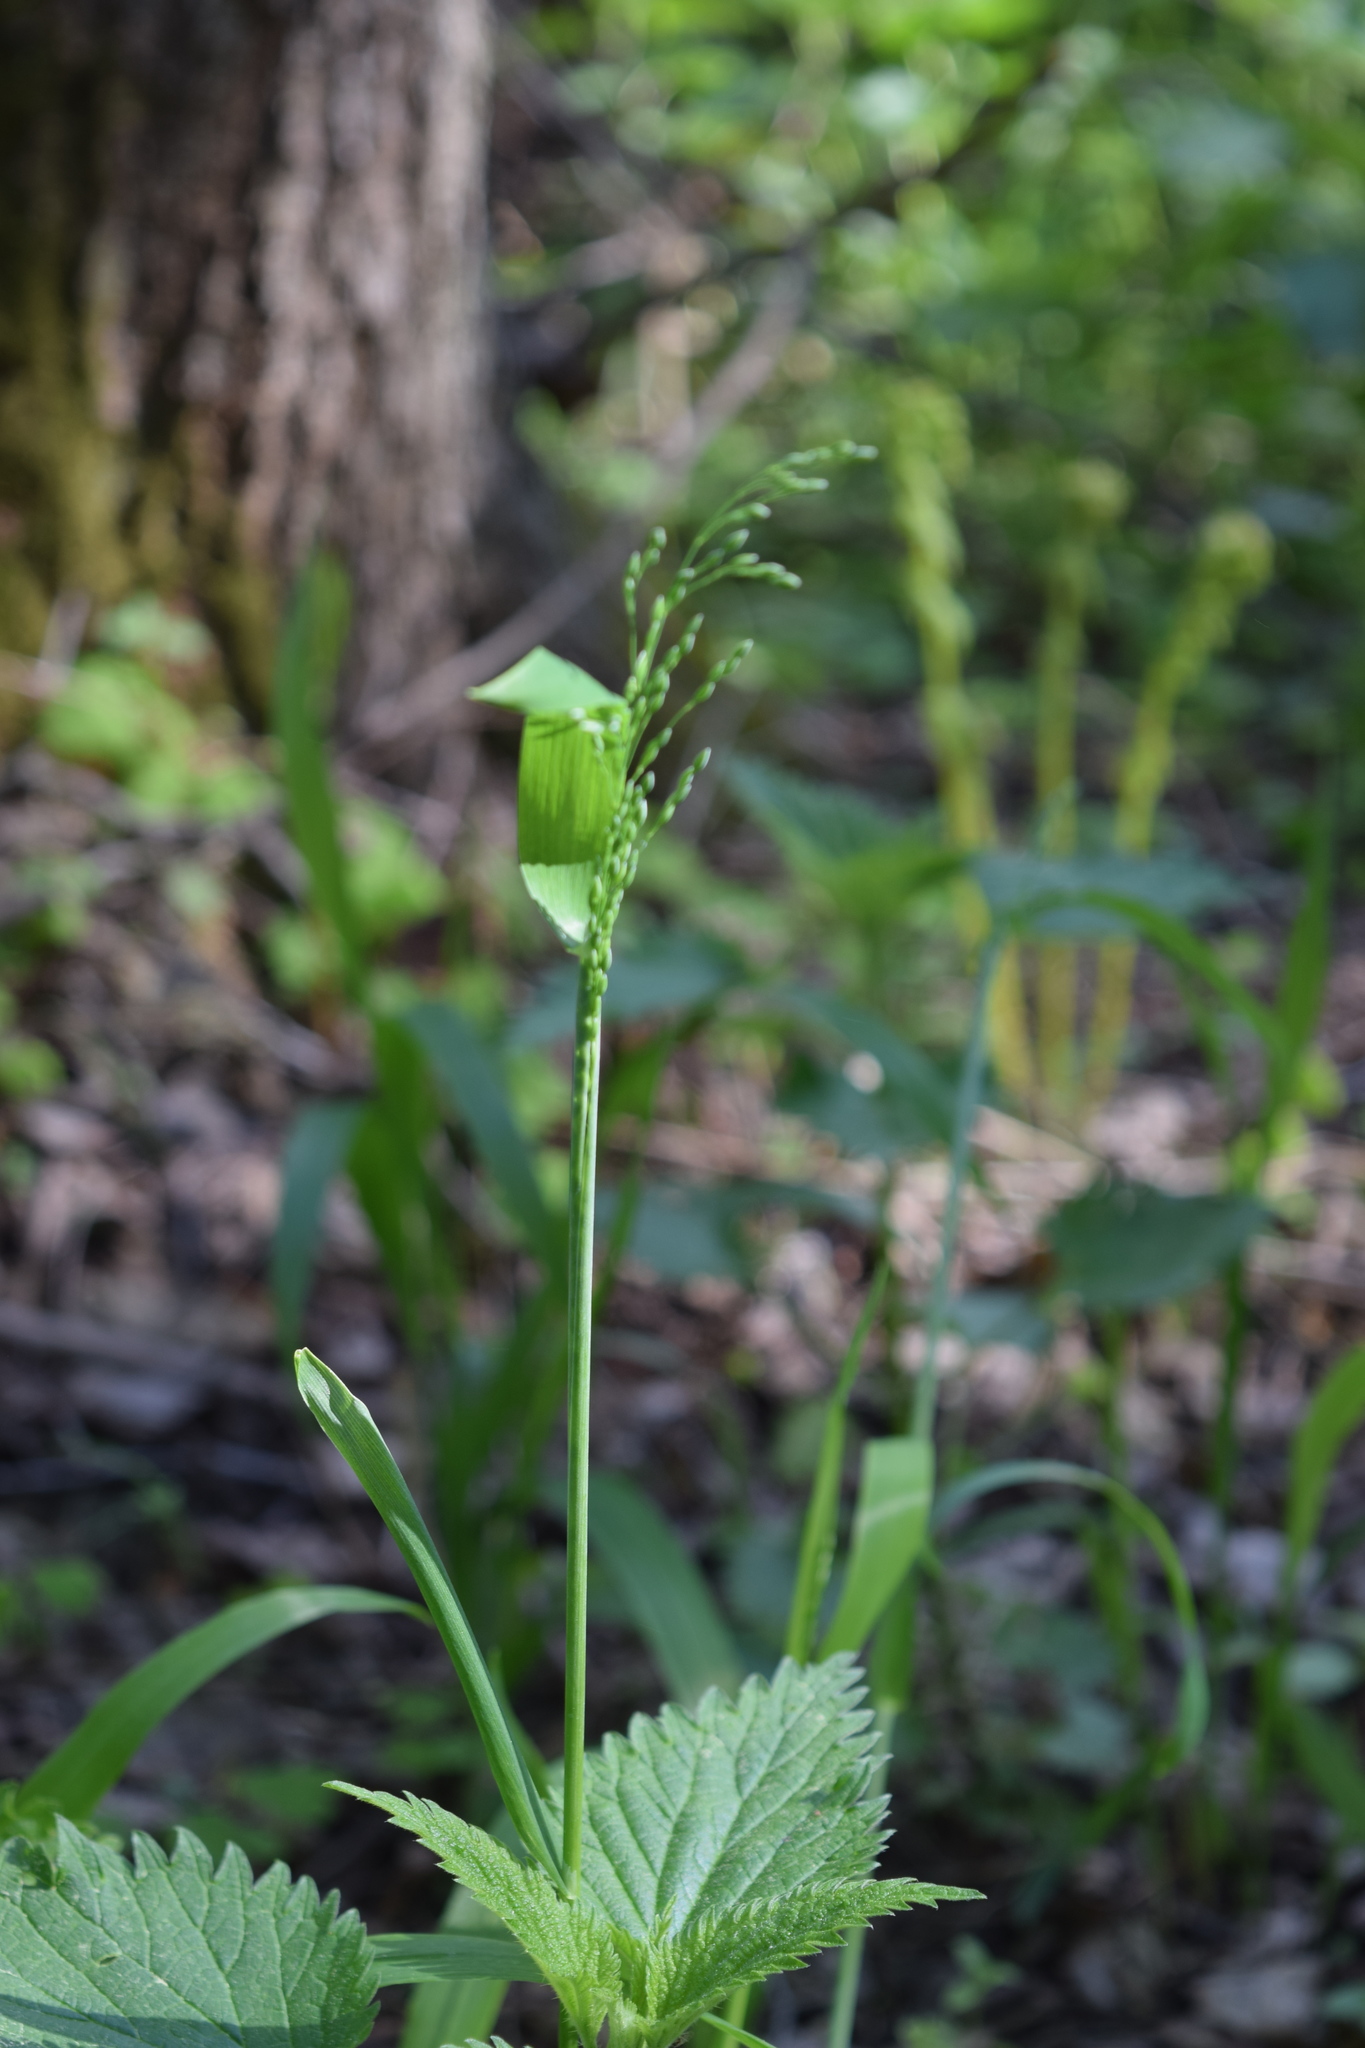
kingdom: Plantae
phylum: Tracheophyta
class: Liliopsida
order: Poales
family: Poaceae
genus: Milium
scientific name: Milium effusum
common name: Wood millet
